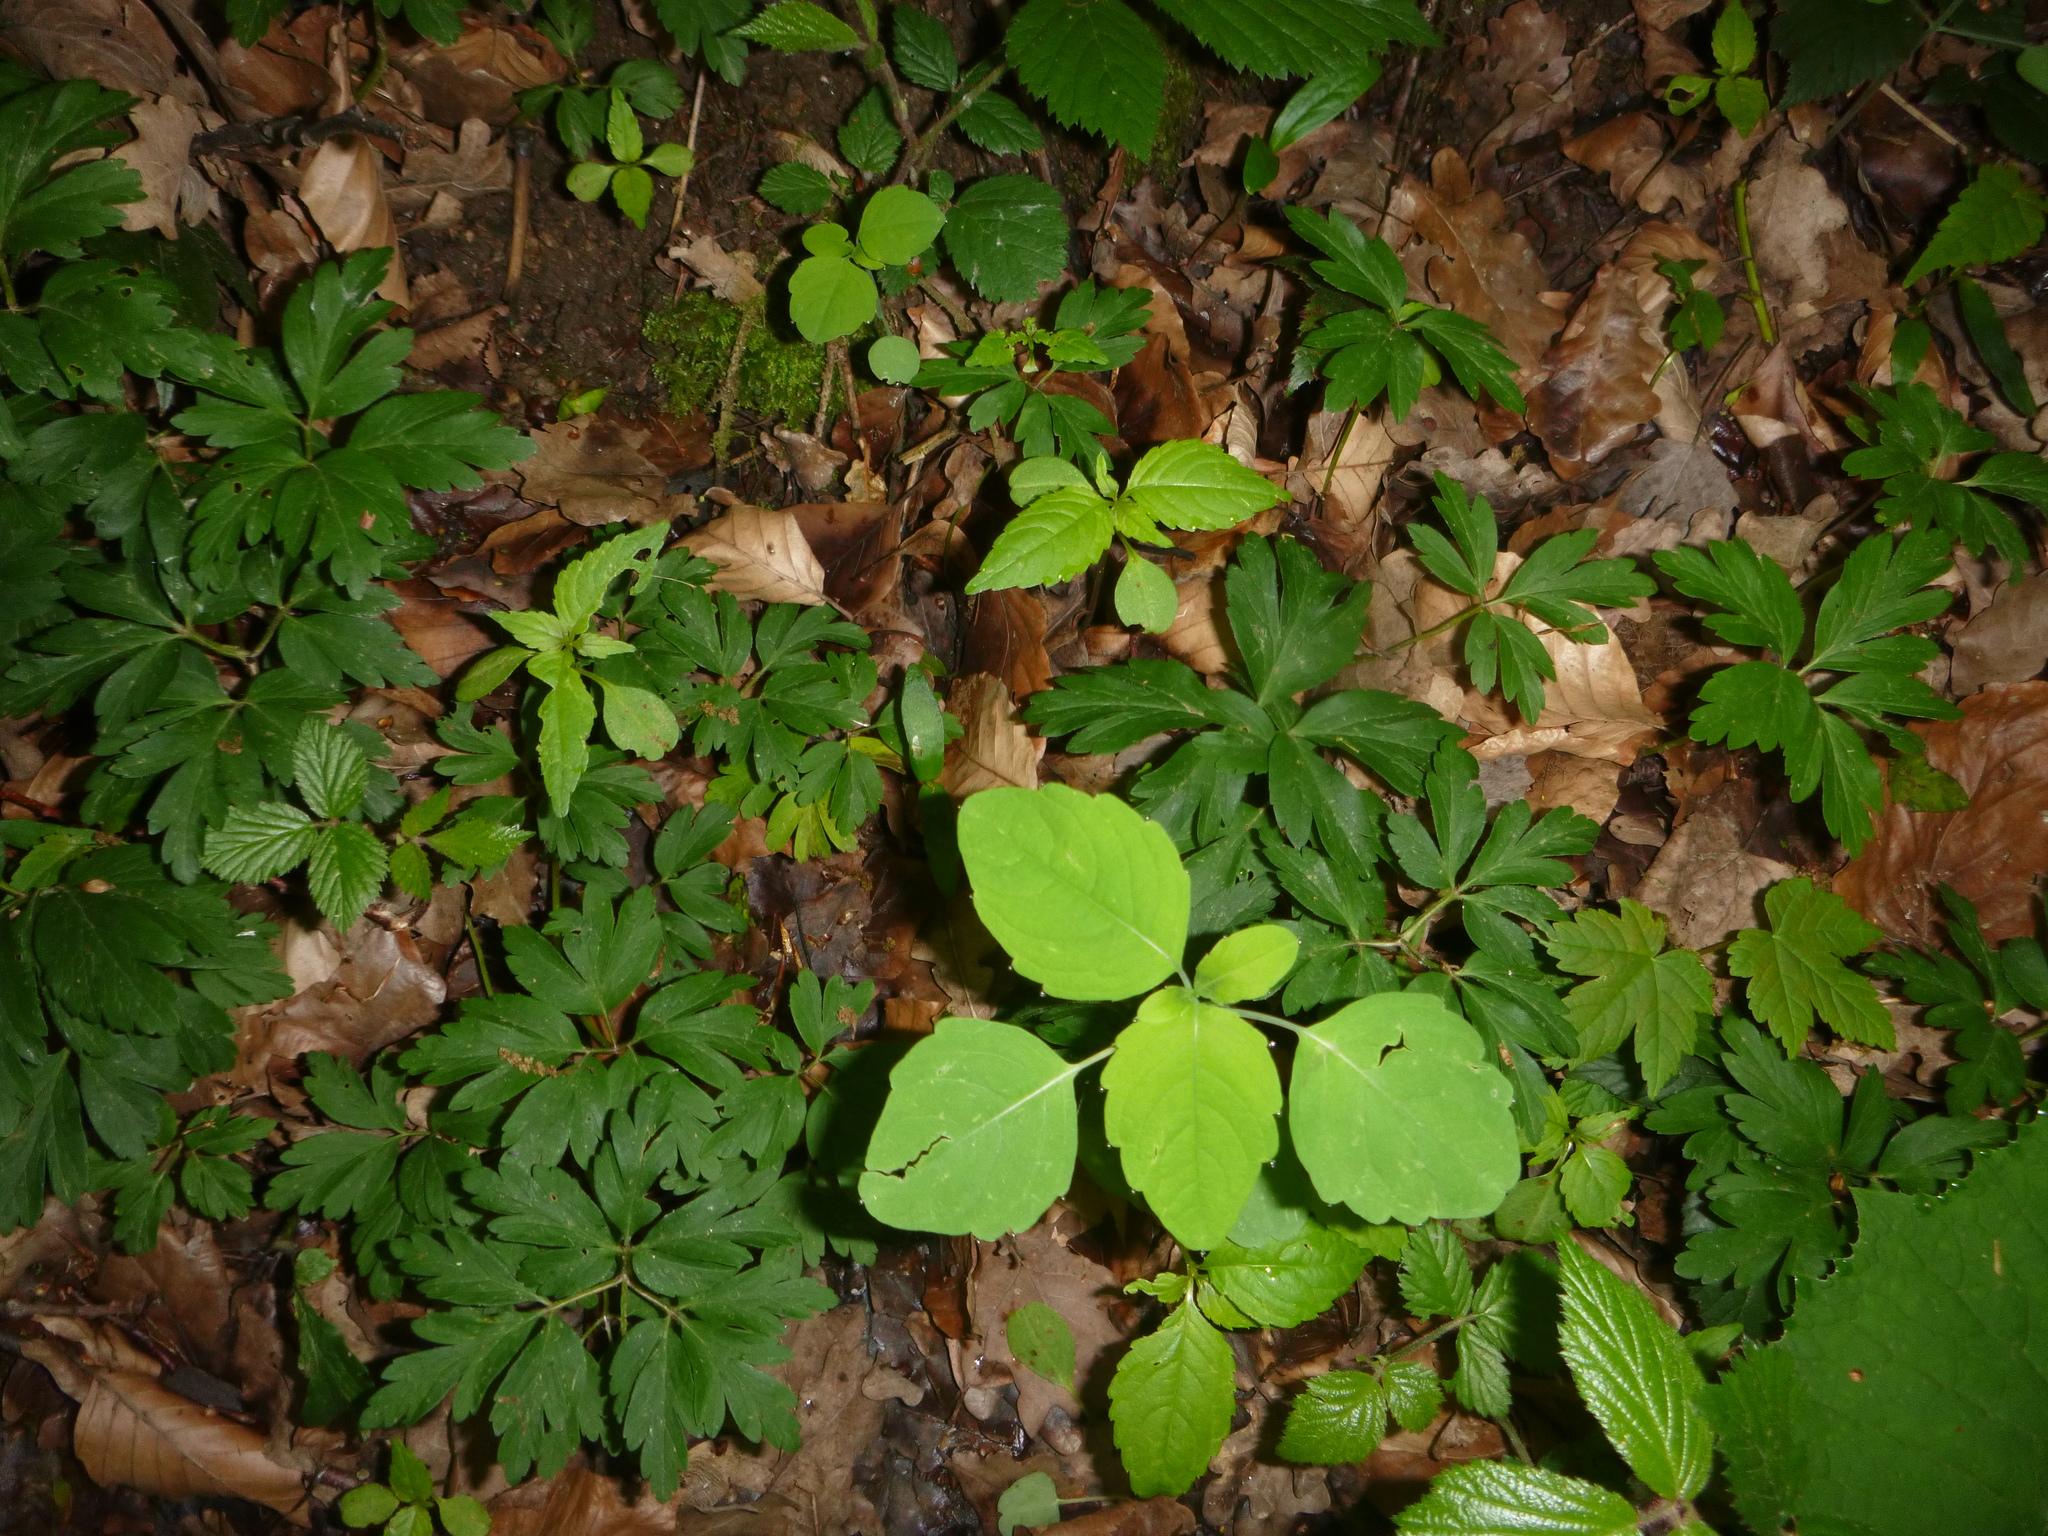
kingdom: Plantae
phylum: Tracheophyta
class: Magnoliopsida
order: Ericales
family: Balsaminaceae
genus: Impatiens
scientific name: Impatiens noli-tangere
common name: Touch-me-not balsam
